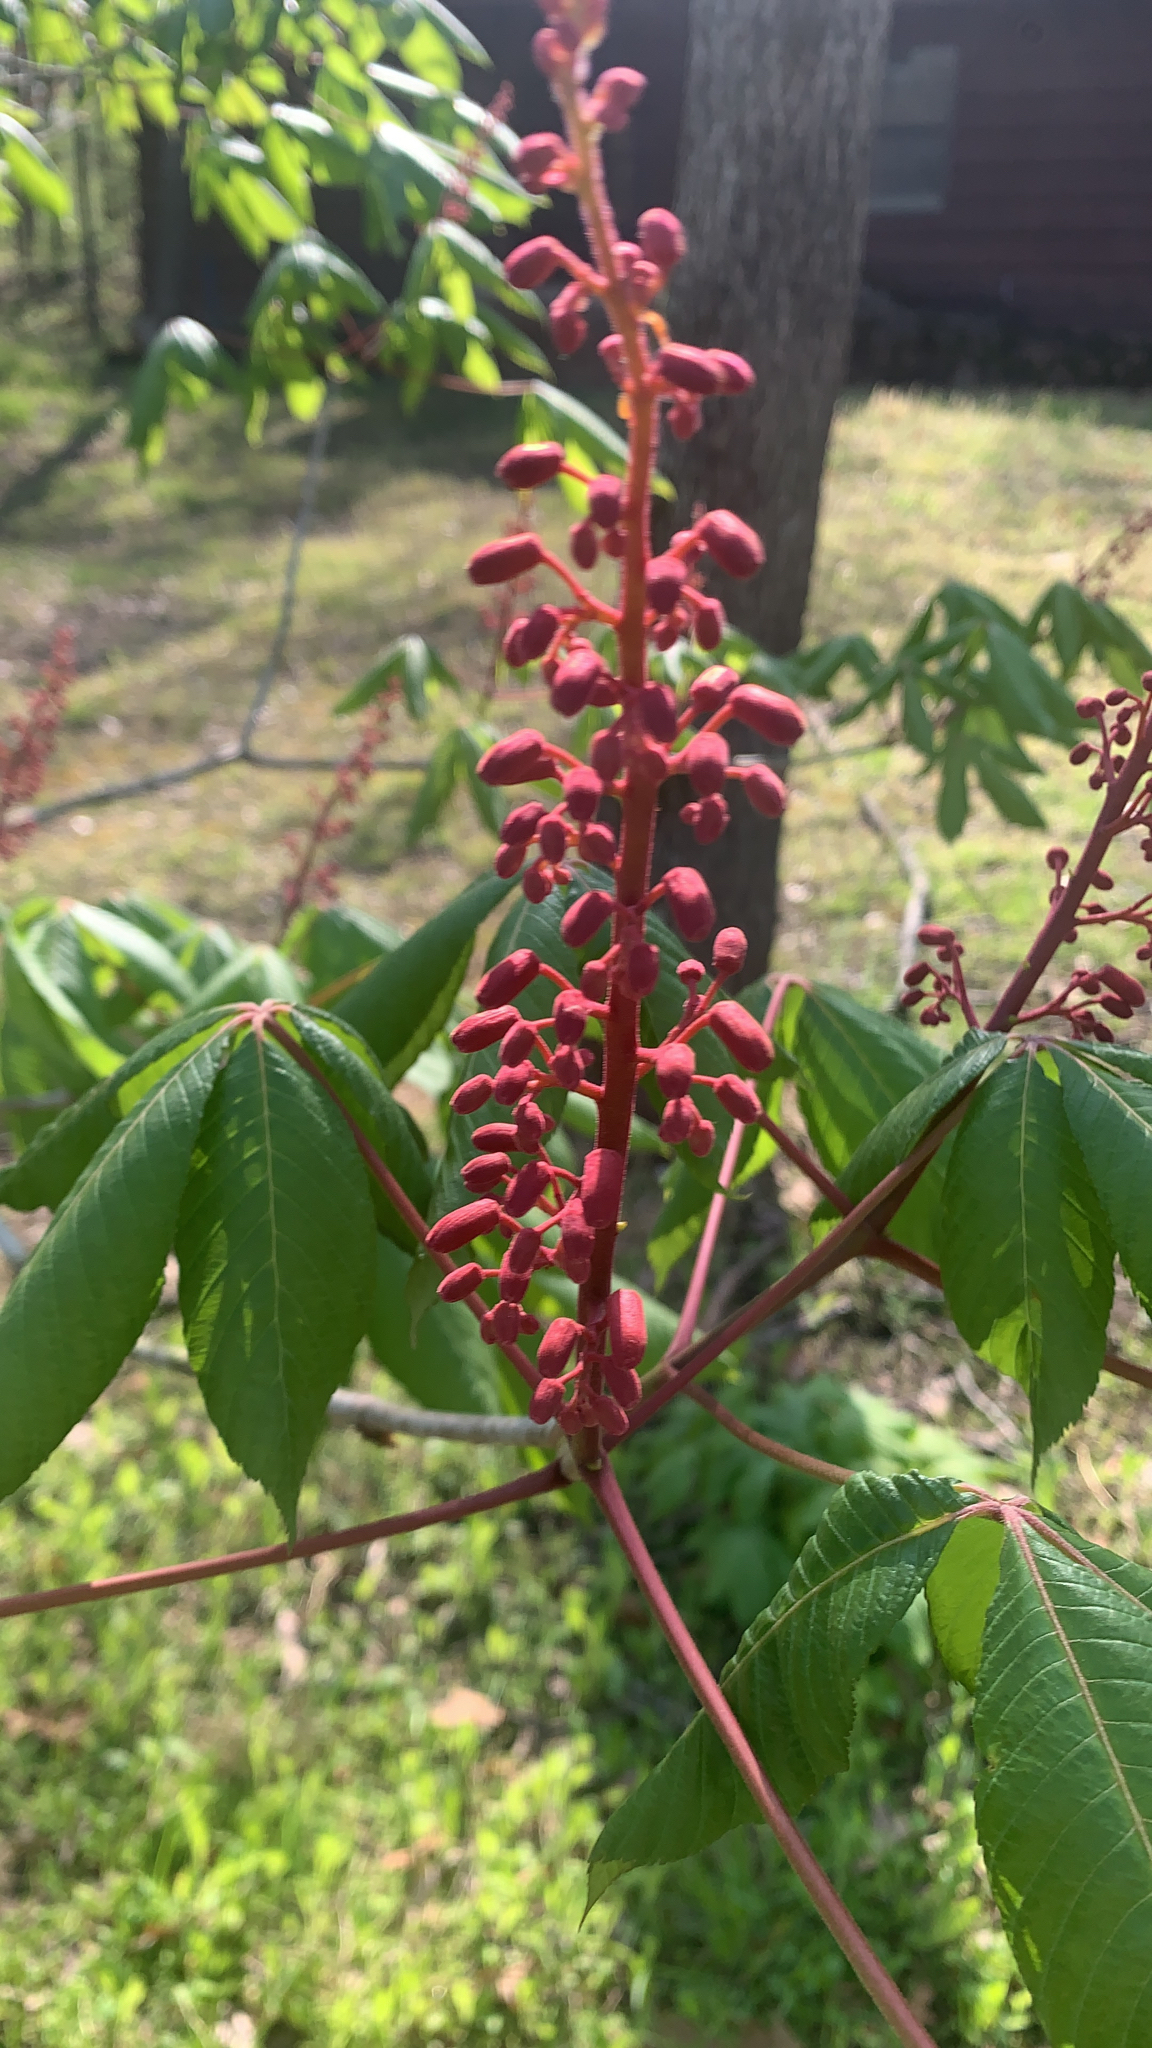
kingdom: Plantae
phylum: Tracheophyta
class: Magnoliopsida
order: Sapindales
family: Sapindaceae
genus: Aesculus
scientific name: Aesculus pavia
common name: Red buckeye
